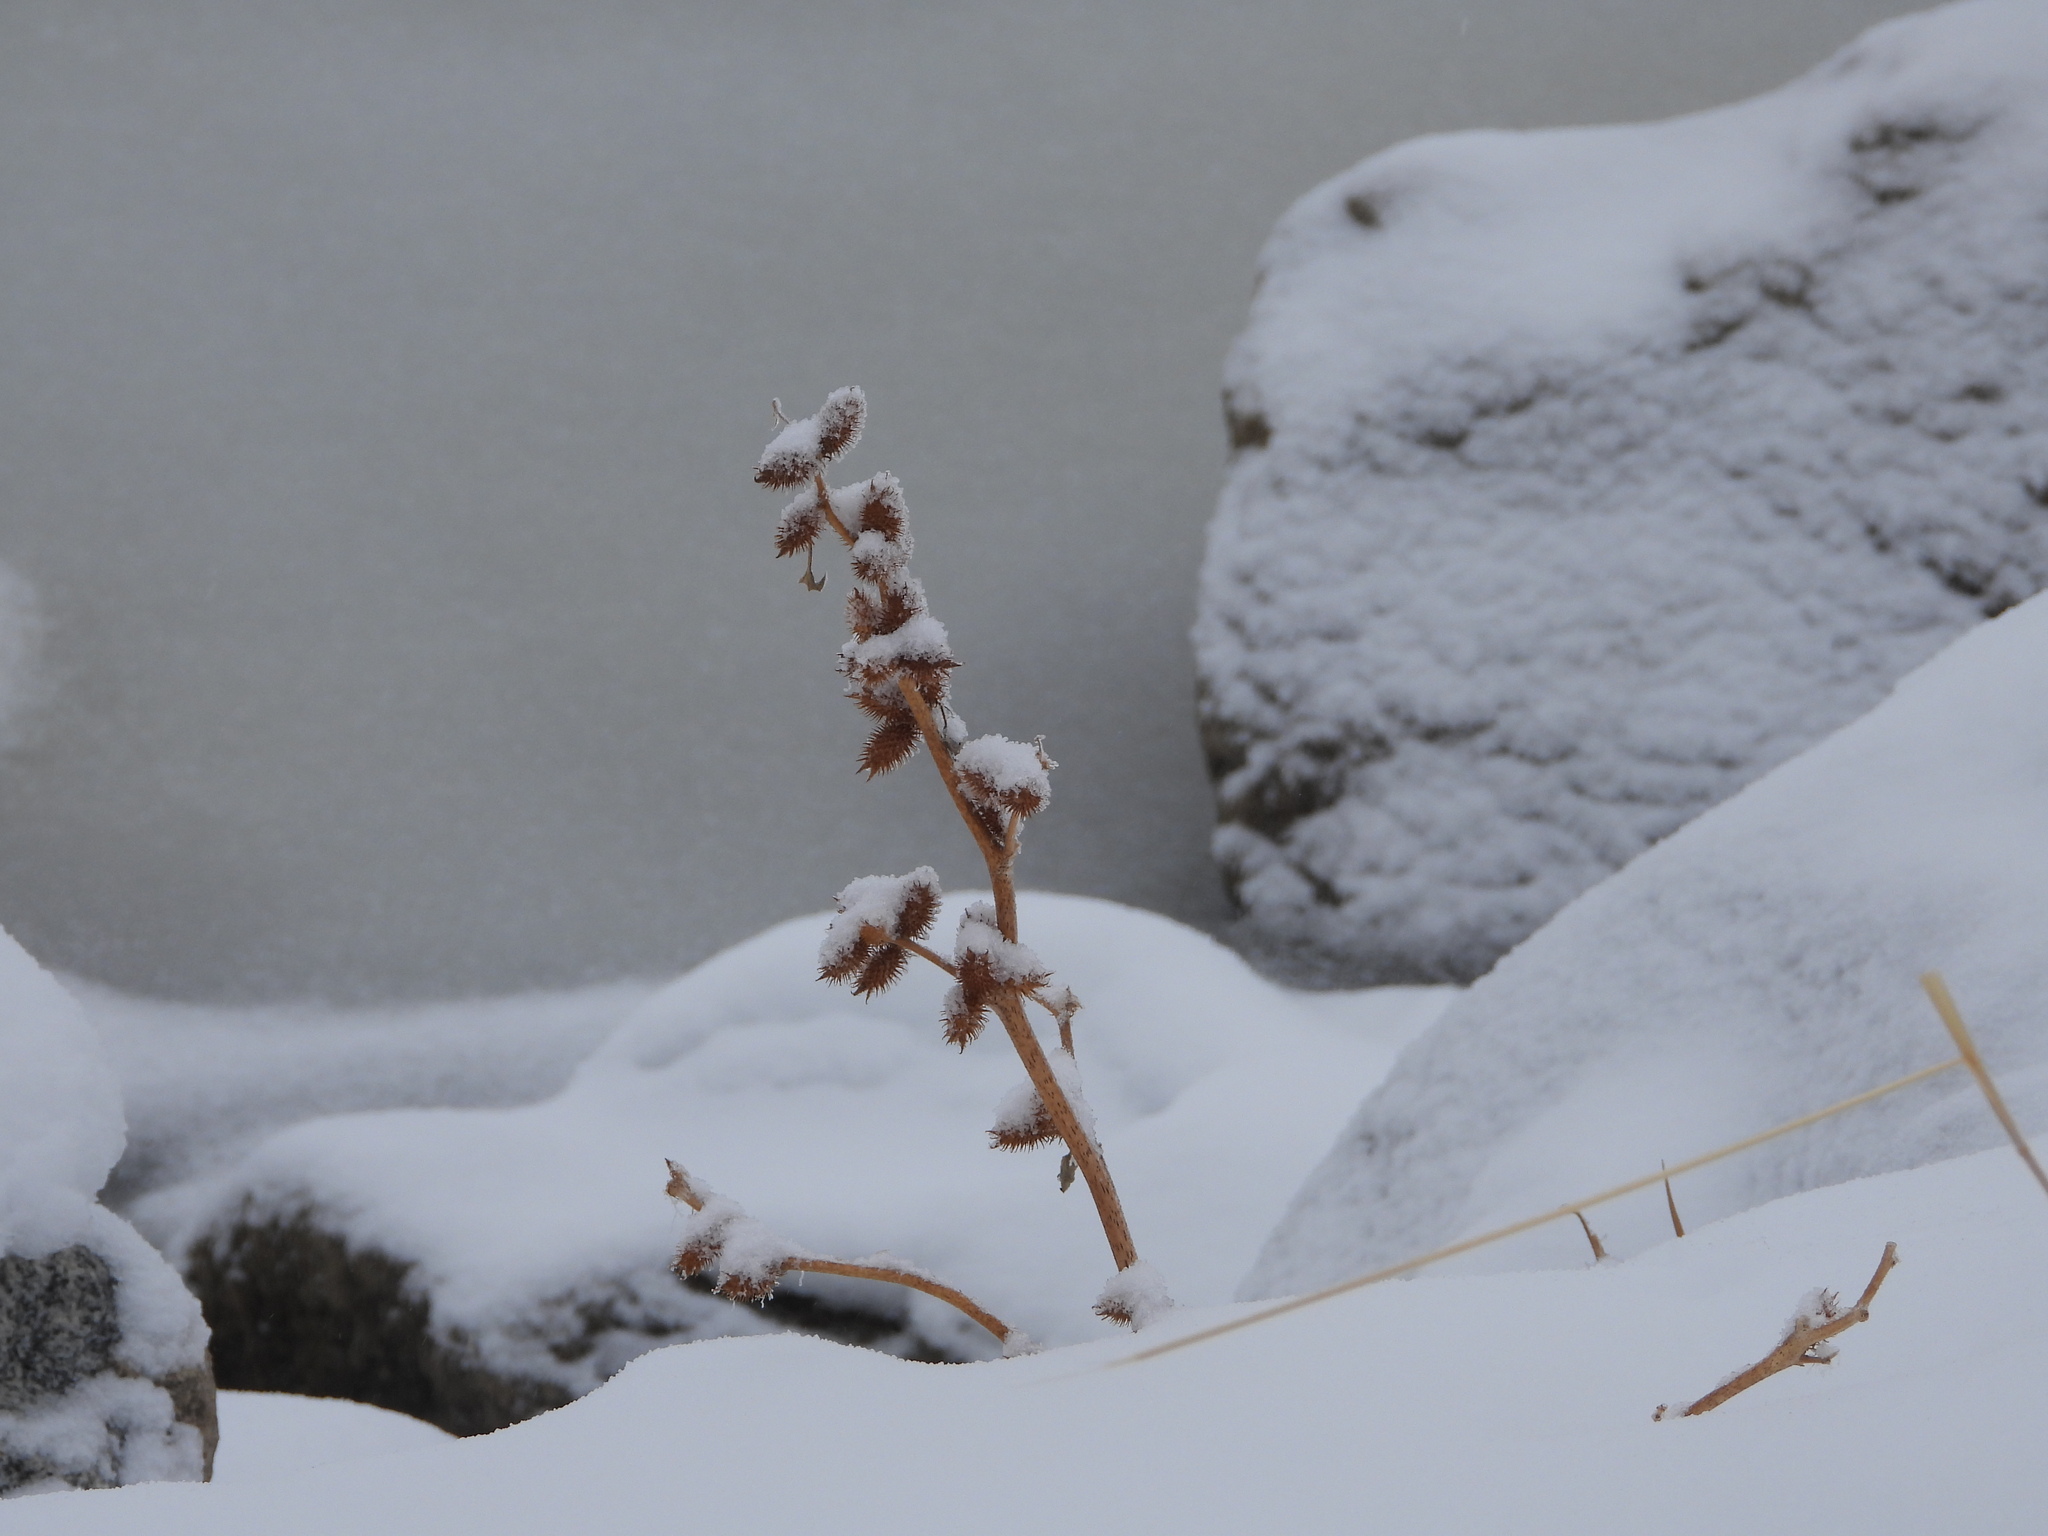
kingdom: Plantae
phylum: Tracheophyta
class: Magnoliopsida
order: Asterales
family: Asteraceae
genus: Xanthium
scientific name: Xanthium strumarium
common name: Rough cocklebur
